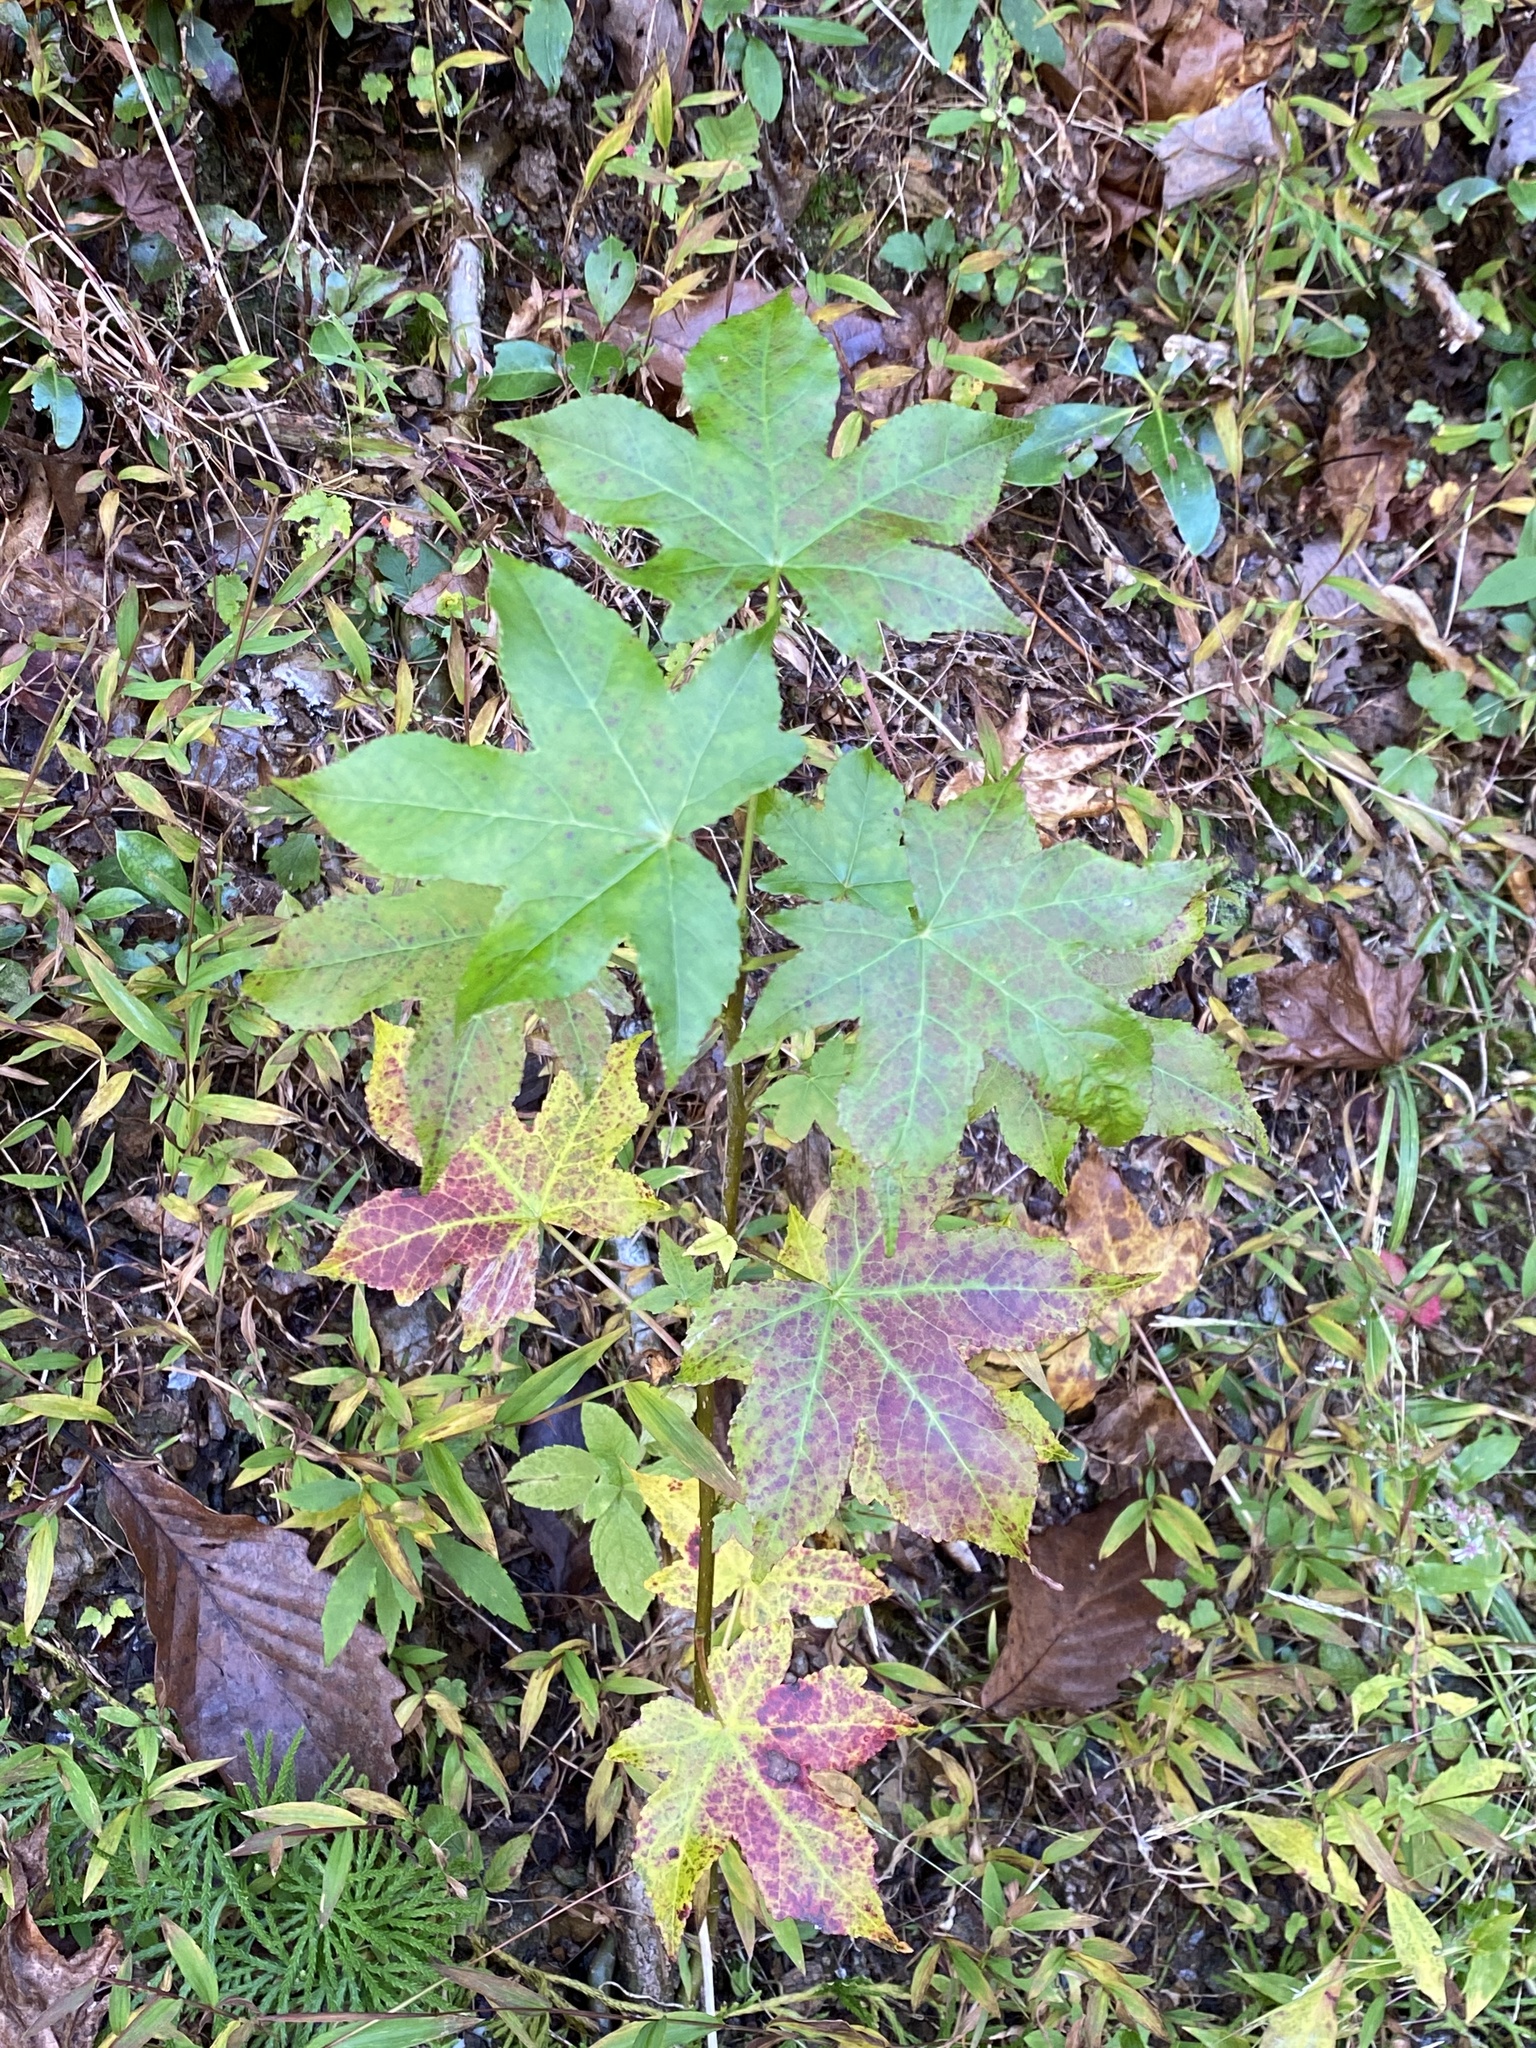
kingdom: Plantae
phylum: Tracheophyta
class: Magnoliopsida
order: Saxifragales
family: Altingiaceae
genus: Liquidambar
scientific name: Liquidambar styraciflua
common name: Sweet gum
